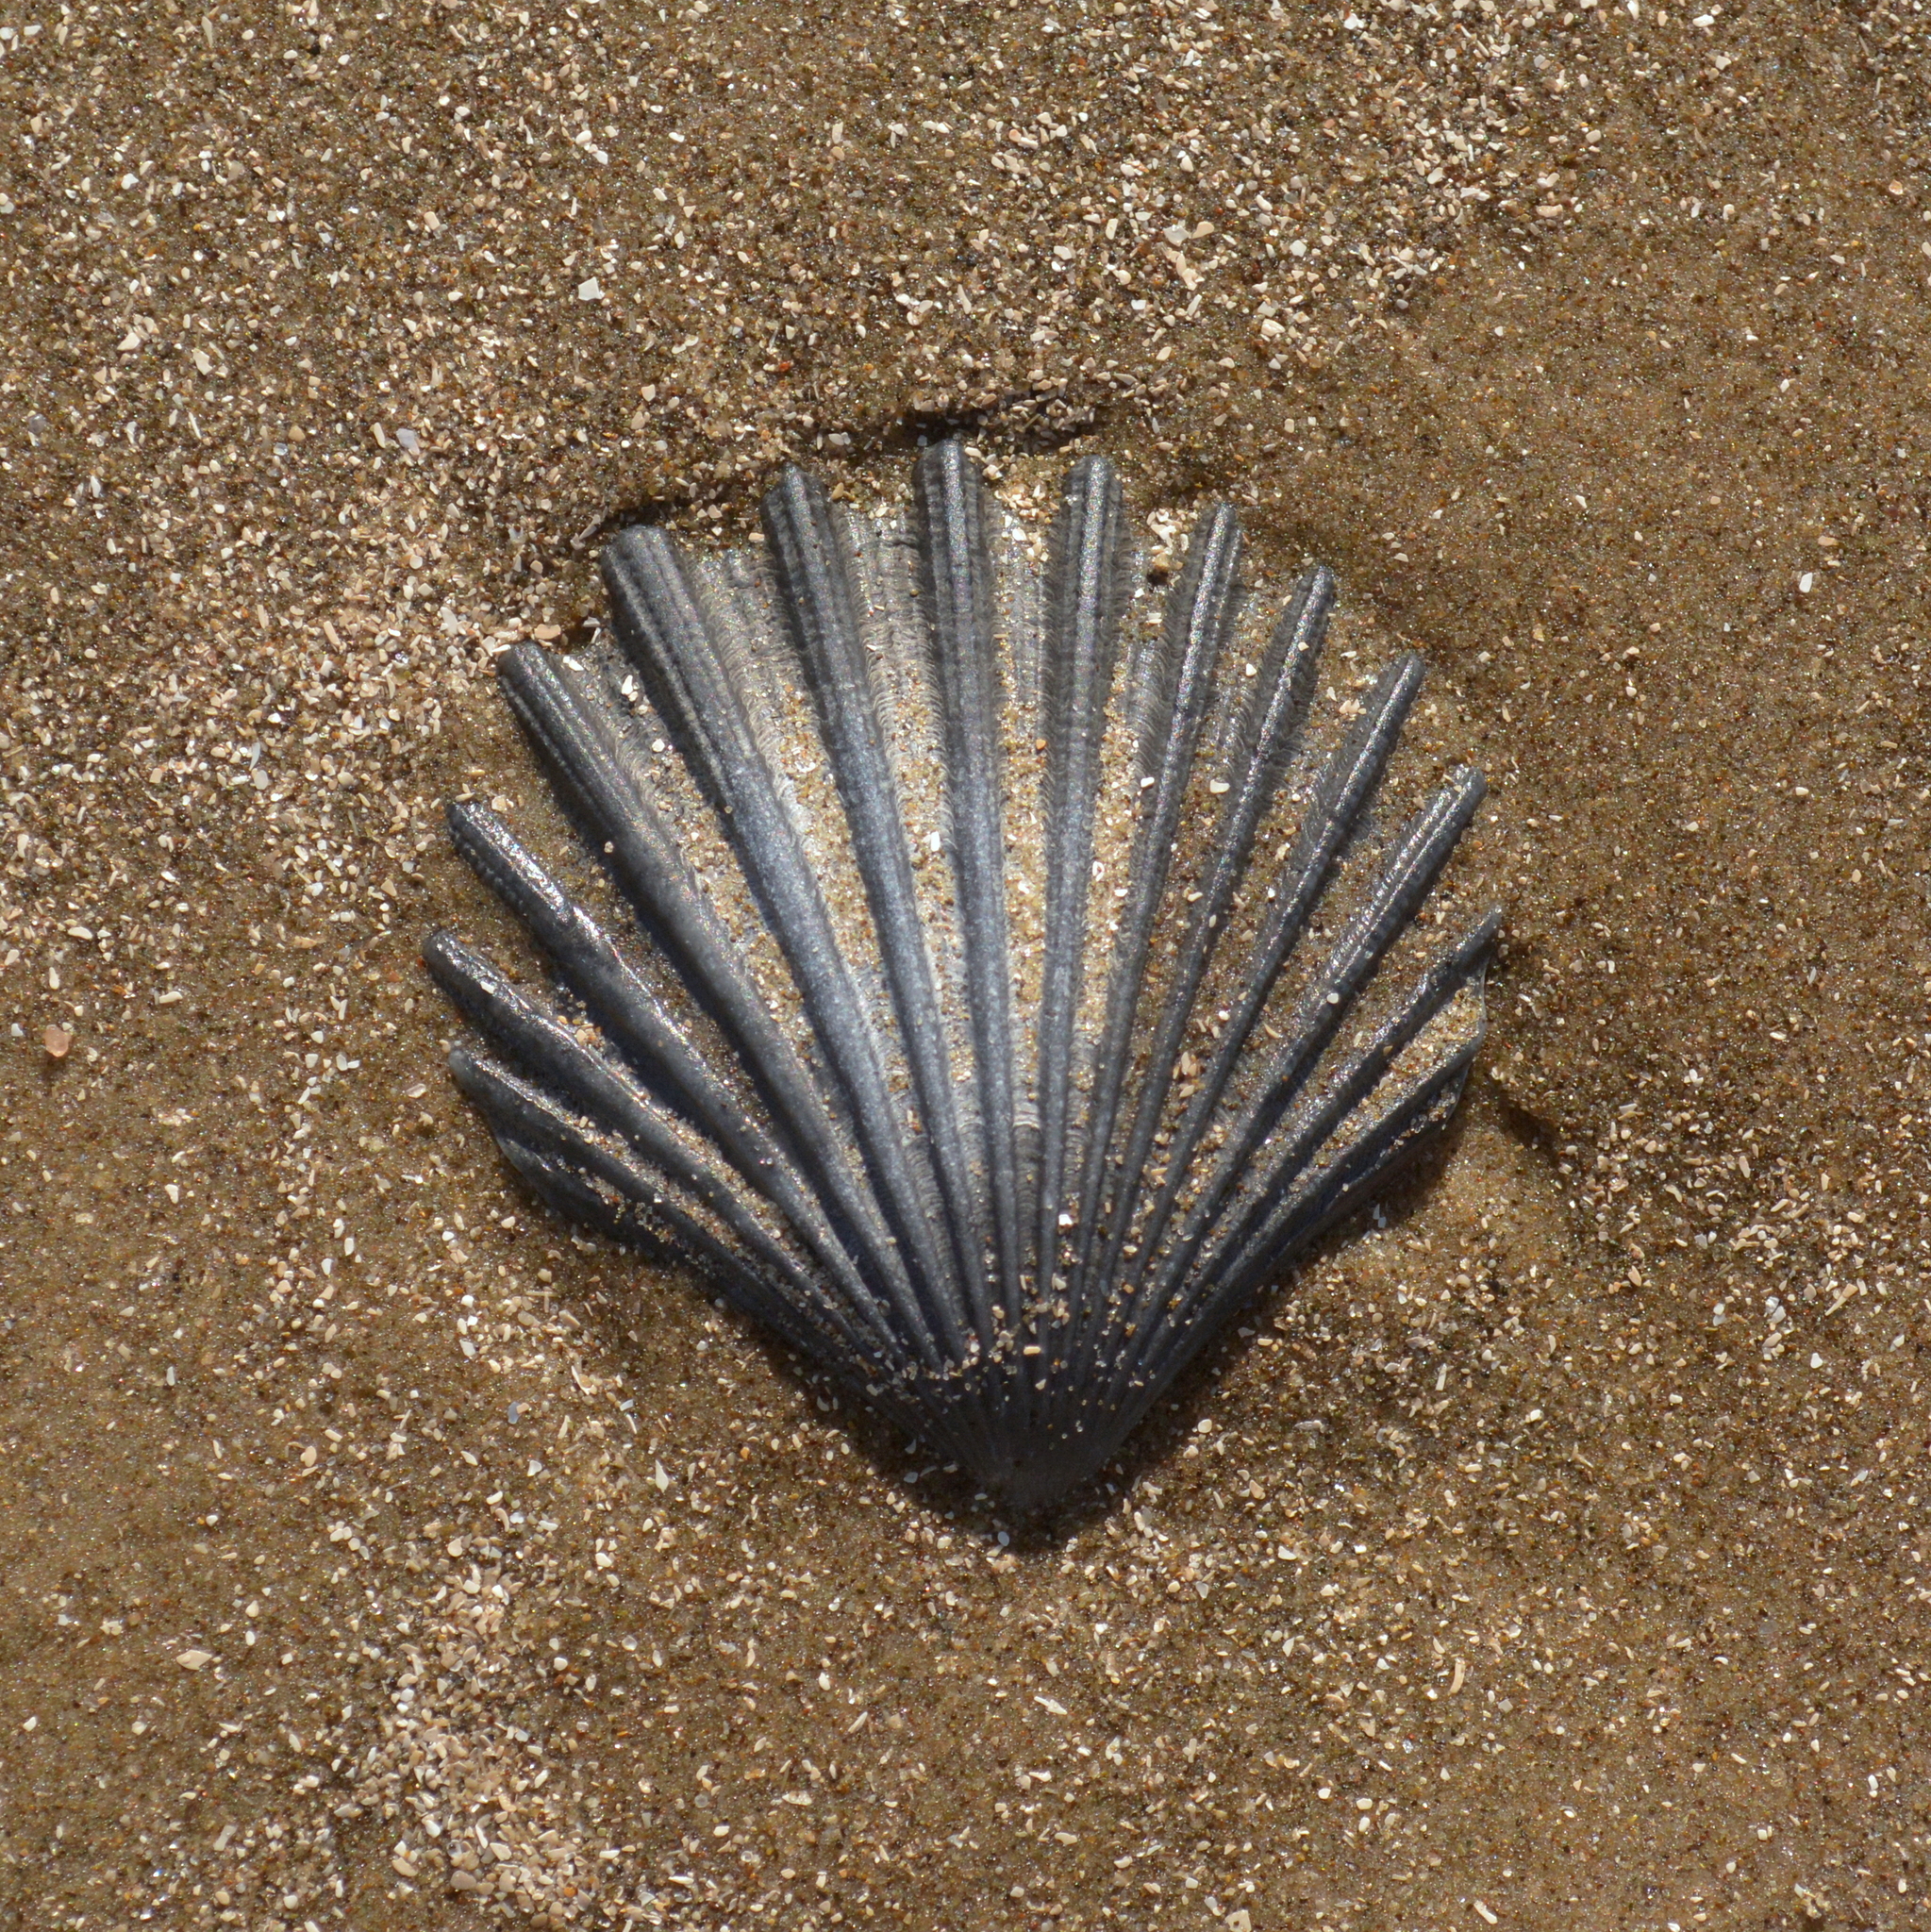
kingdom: Animalia
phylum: Mollusca
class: Bivalvia
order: Pectinida
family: Pectinidae
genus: Aequipecten
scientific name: Aequipecten tehuelchus
